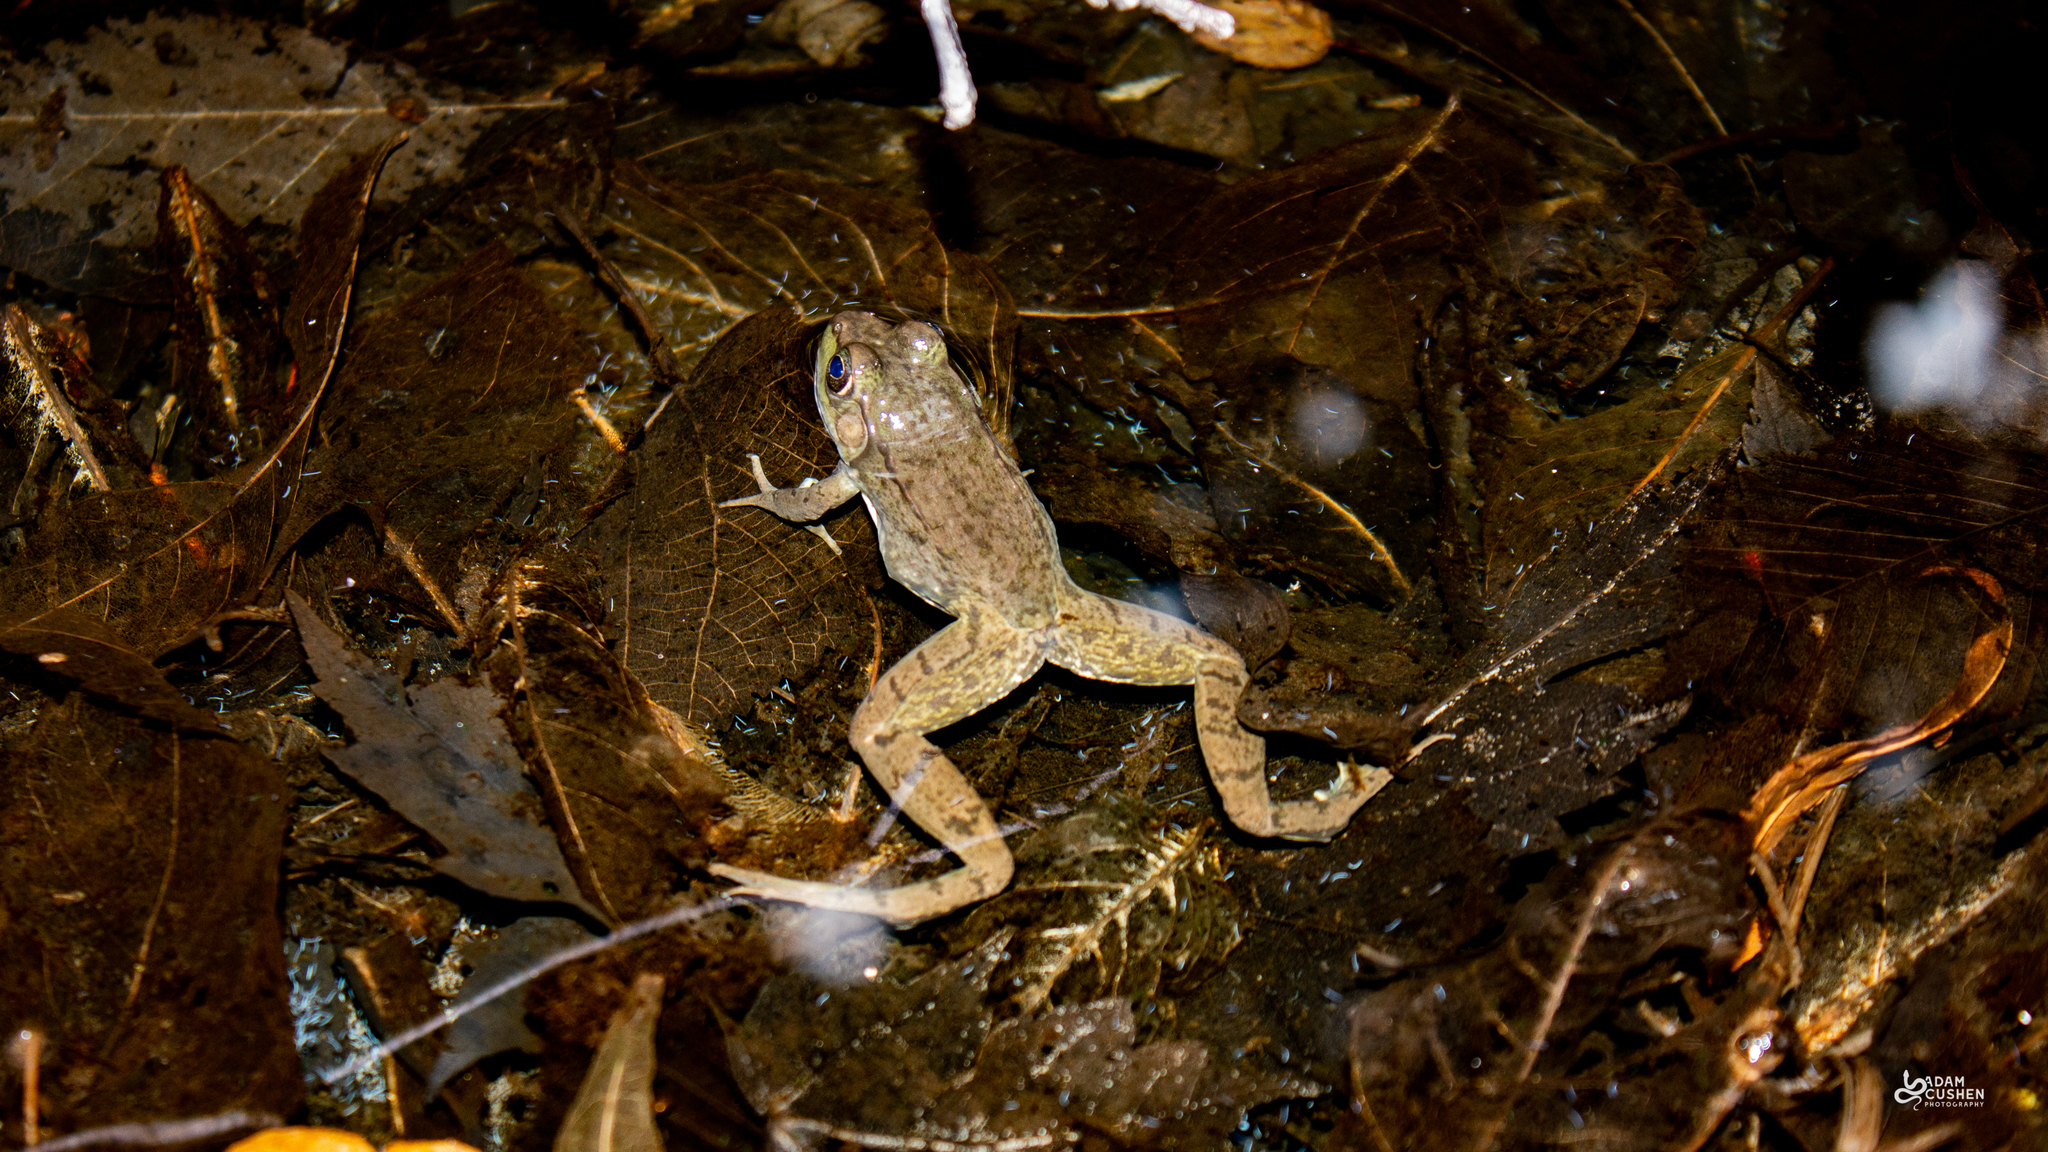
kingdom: Animalia
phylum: Chordata
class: Amphibia
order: Anura
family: Ranidae
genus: Lithobates
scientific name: Lithobates clamitans
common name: Green frog
